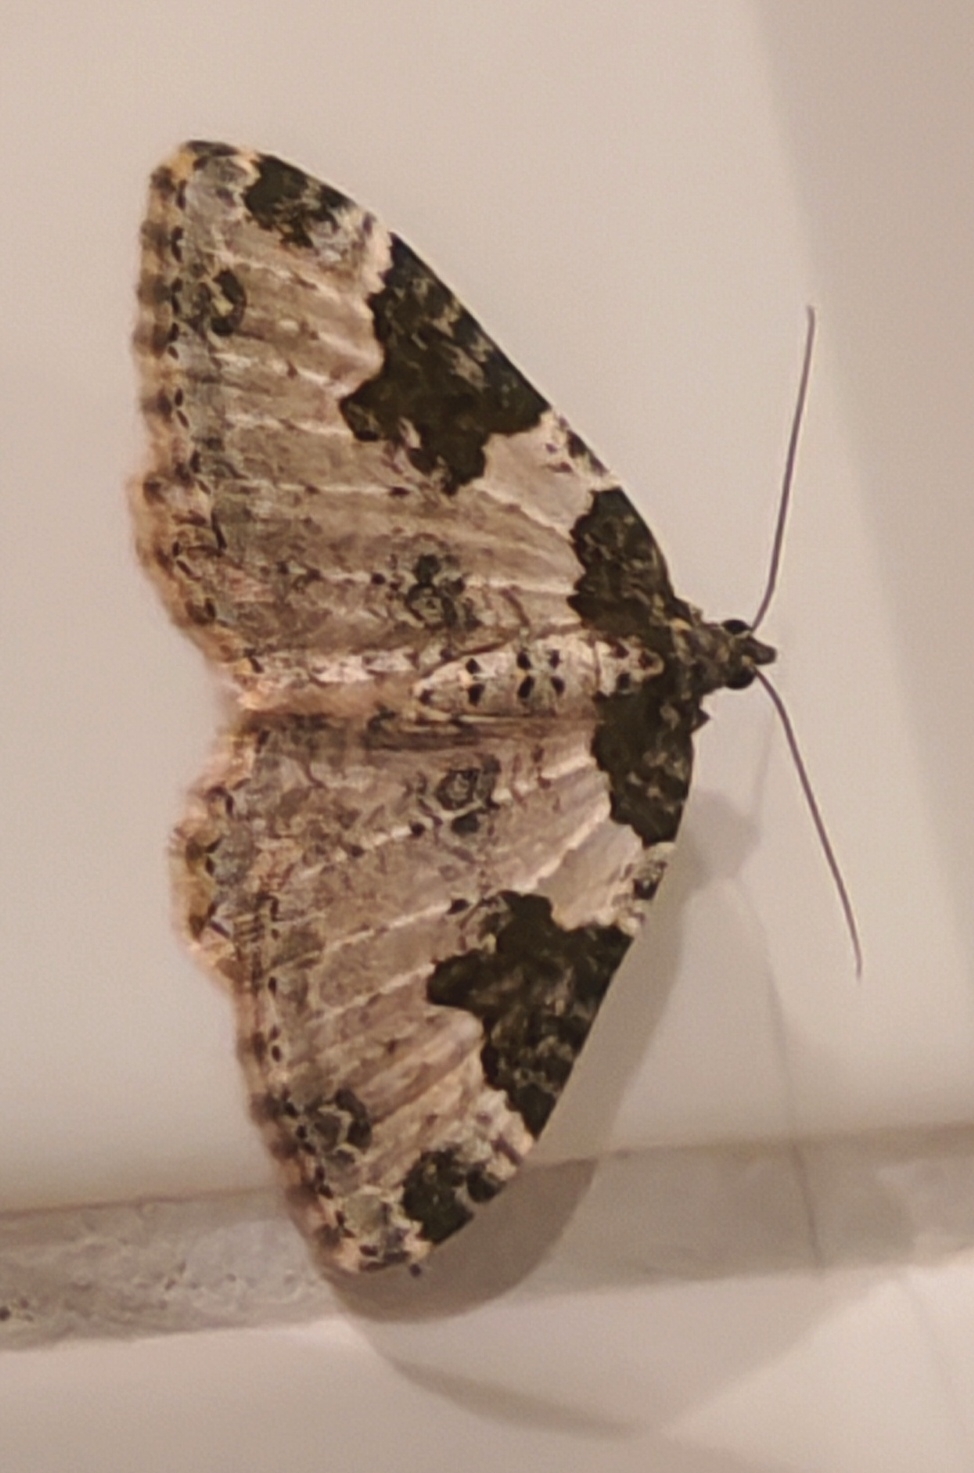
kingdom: Animalia
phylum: Arthropoda
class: Insecta
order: Lepidoptera
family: Geometridae
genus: Xanthorhoe
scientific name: Xanthorhoe fluctuata
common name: Garden carpet
